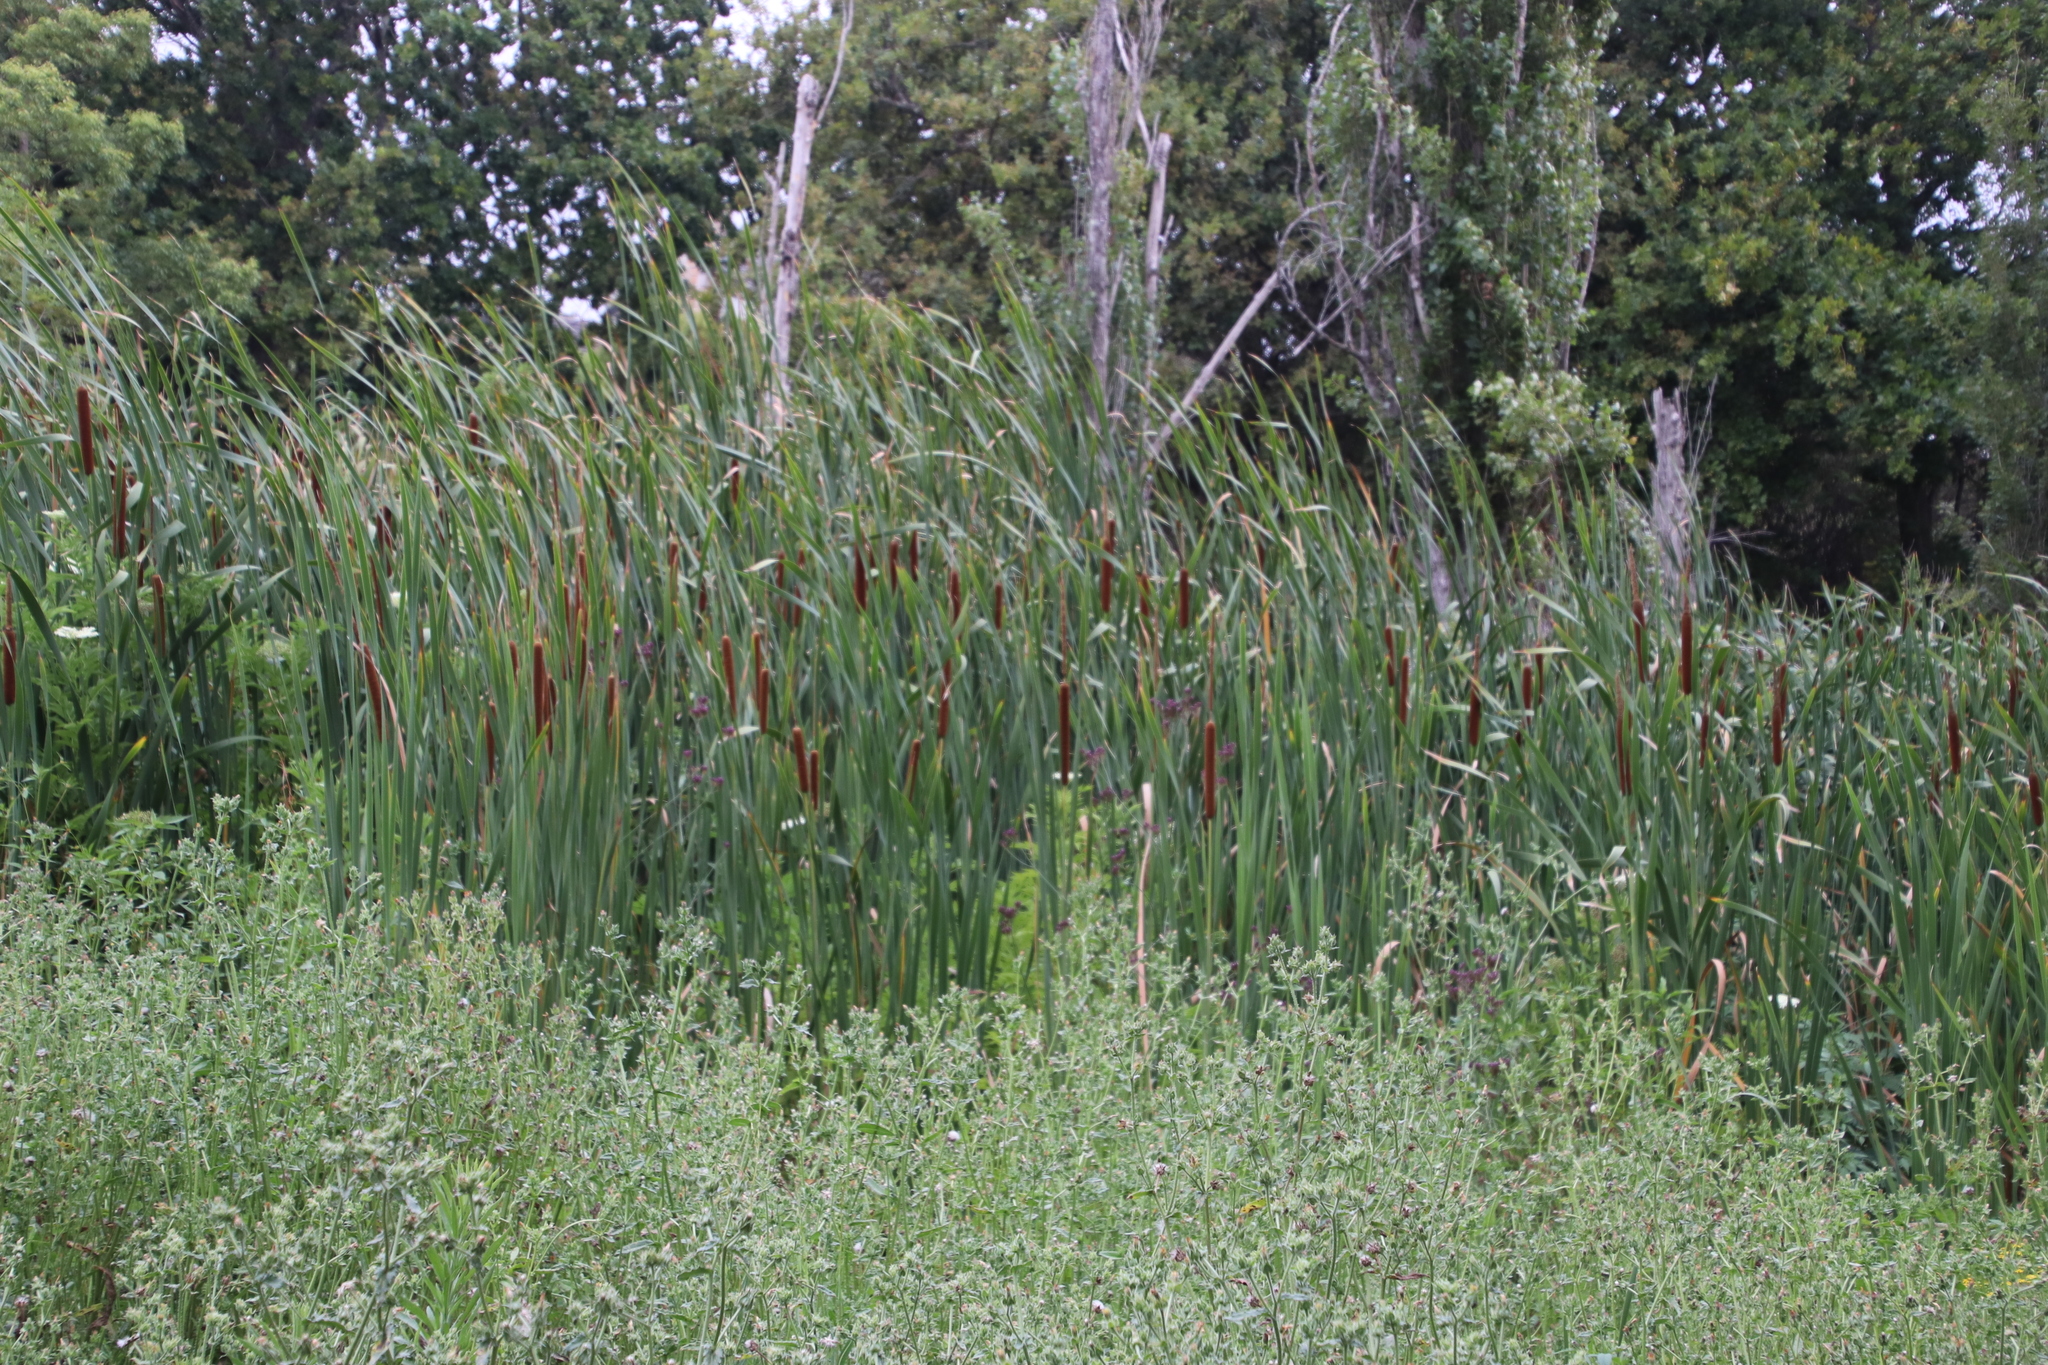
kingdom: Plantae
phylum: Tracheophyta
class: Liliopsida
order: Poales
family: Typhaceae
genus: Typha
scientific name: Typha capensis
